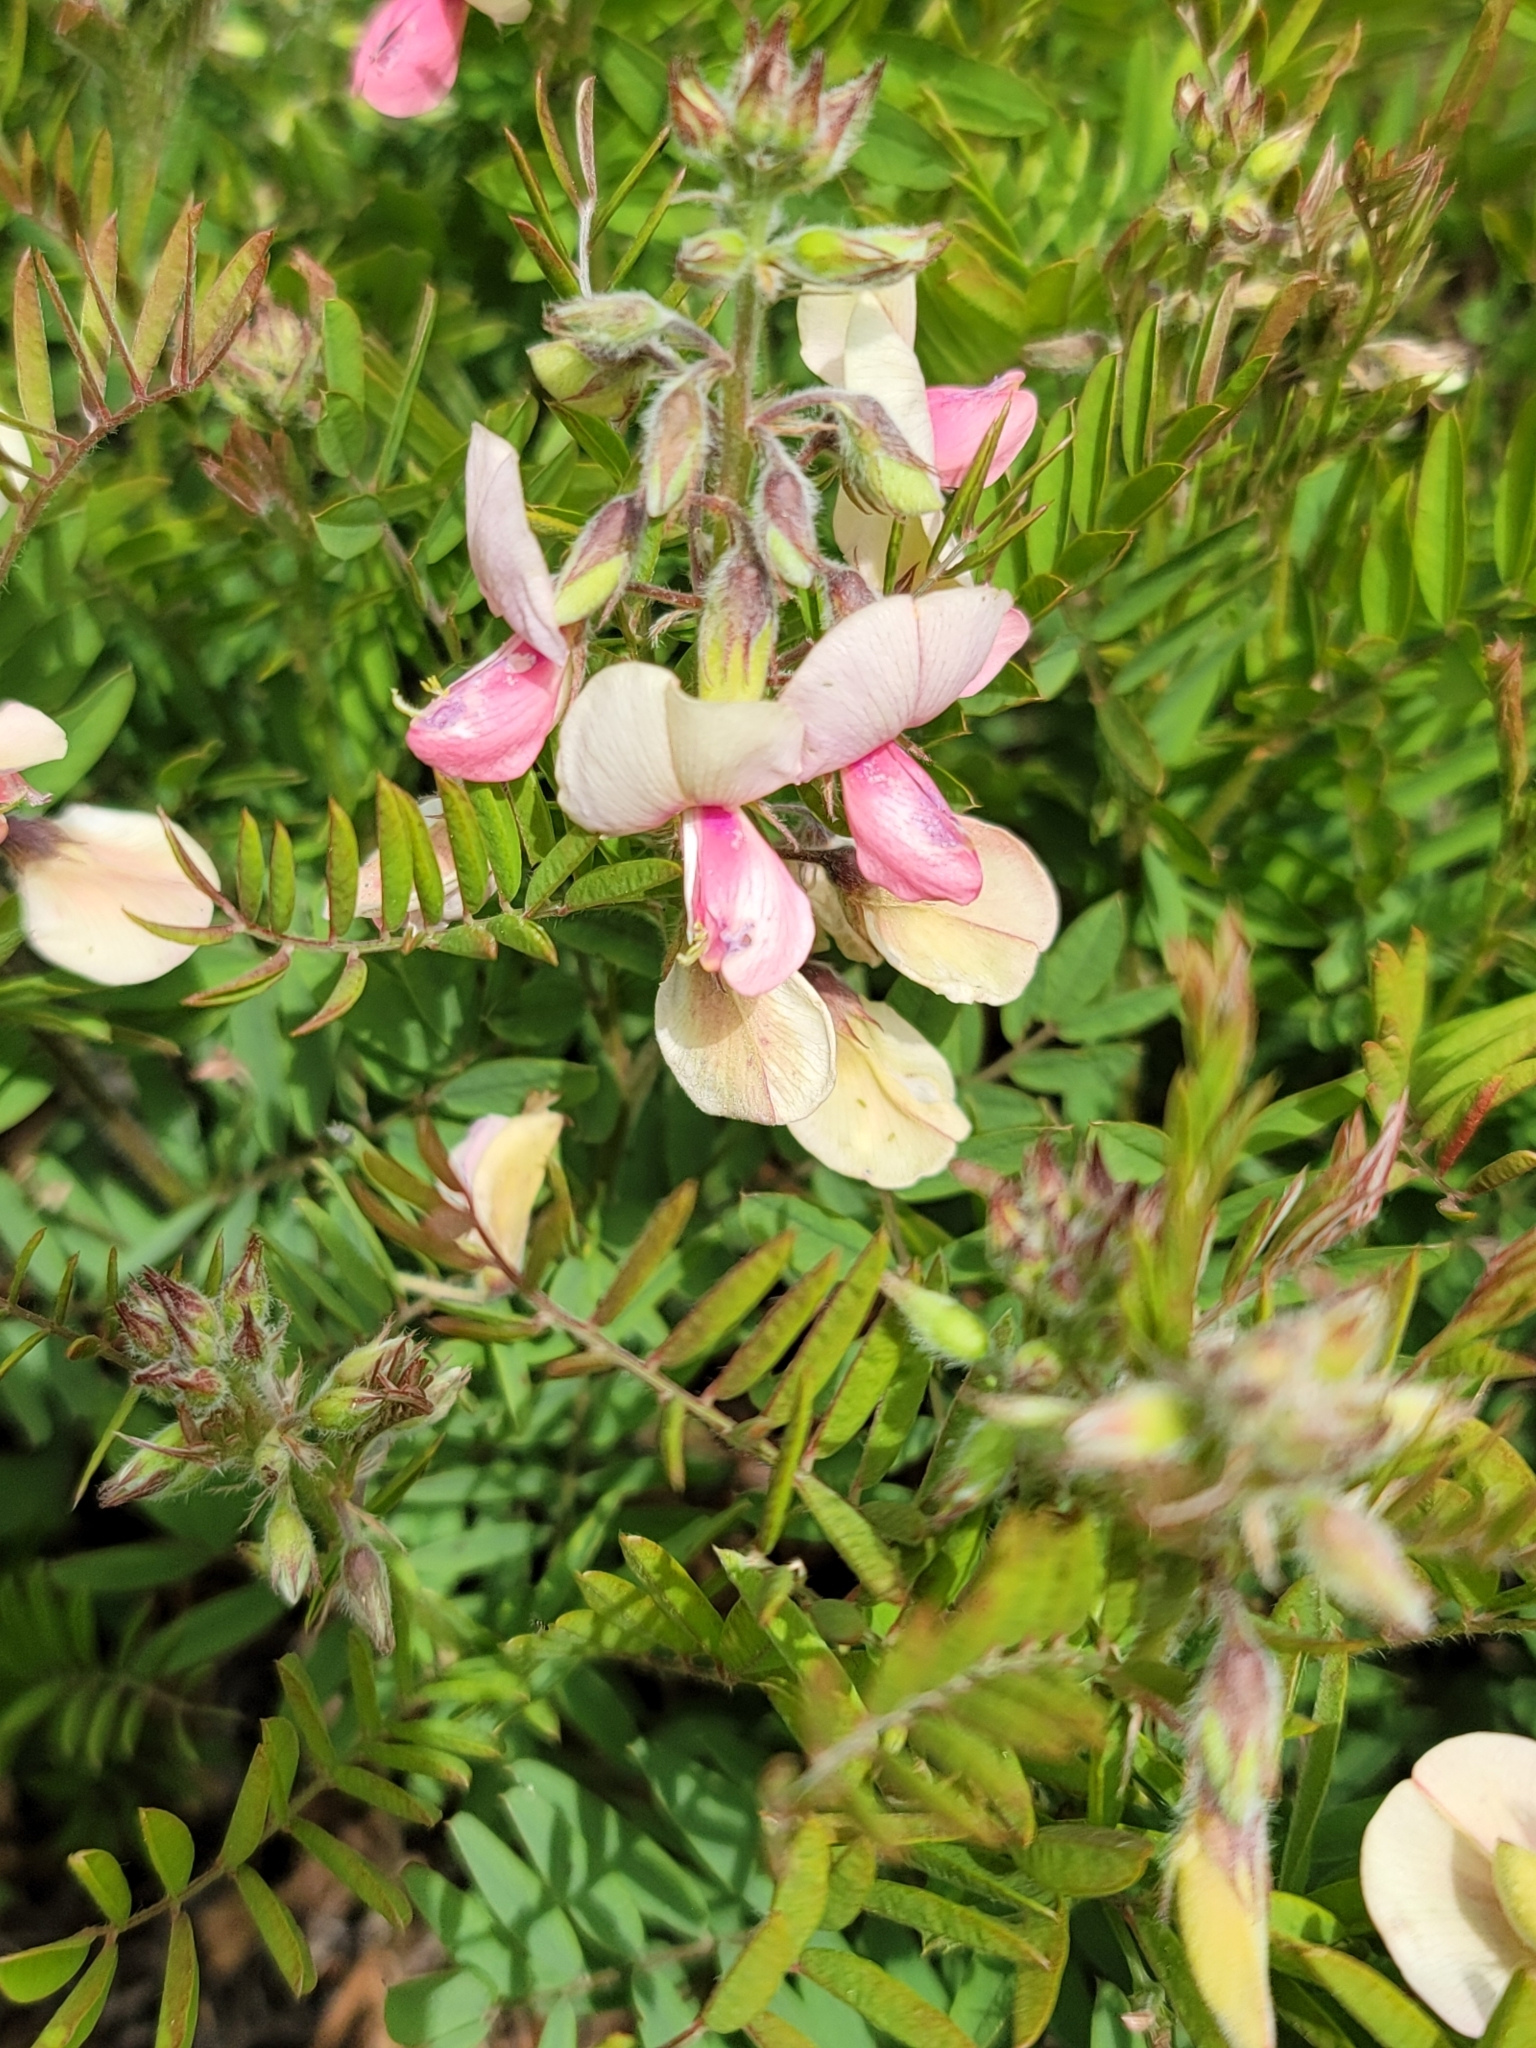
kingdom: Plantae
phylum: Tracheophyta
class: Magnoliopsida
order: Fabales
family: Fabaceae
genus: Tephrosia
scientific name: Tephrosia virginiana
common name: Rabbit-pea
